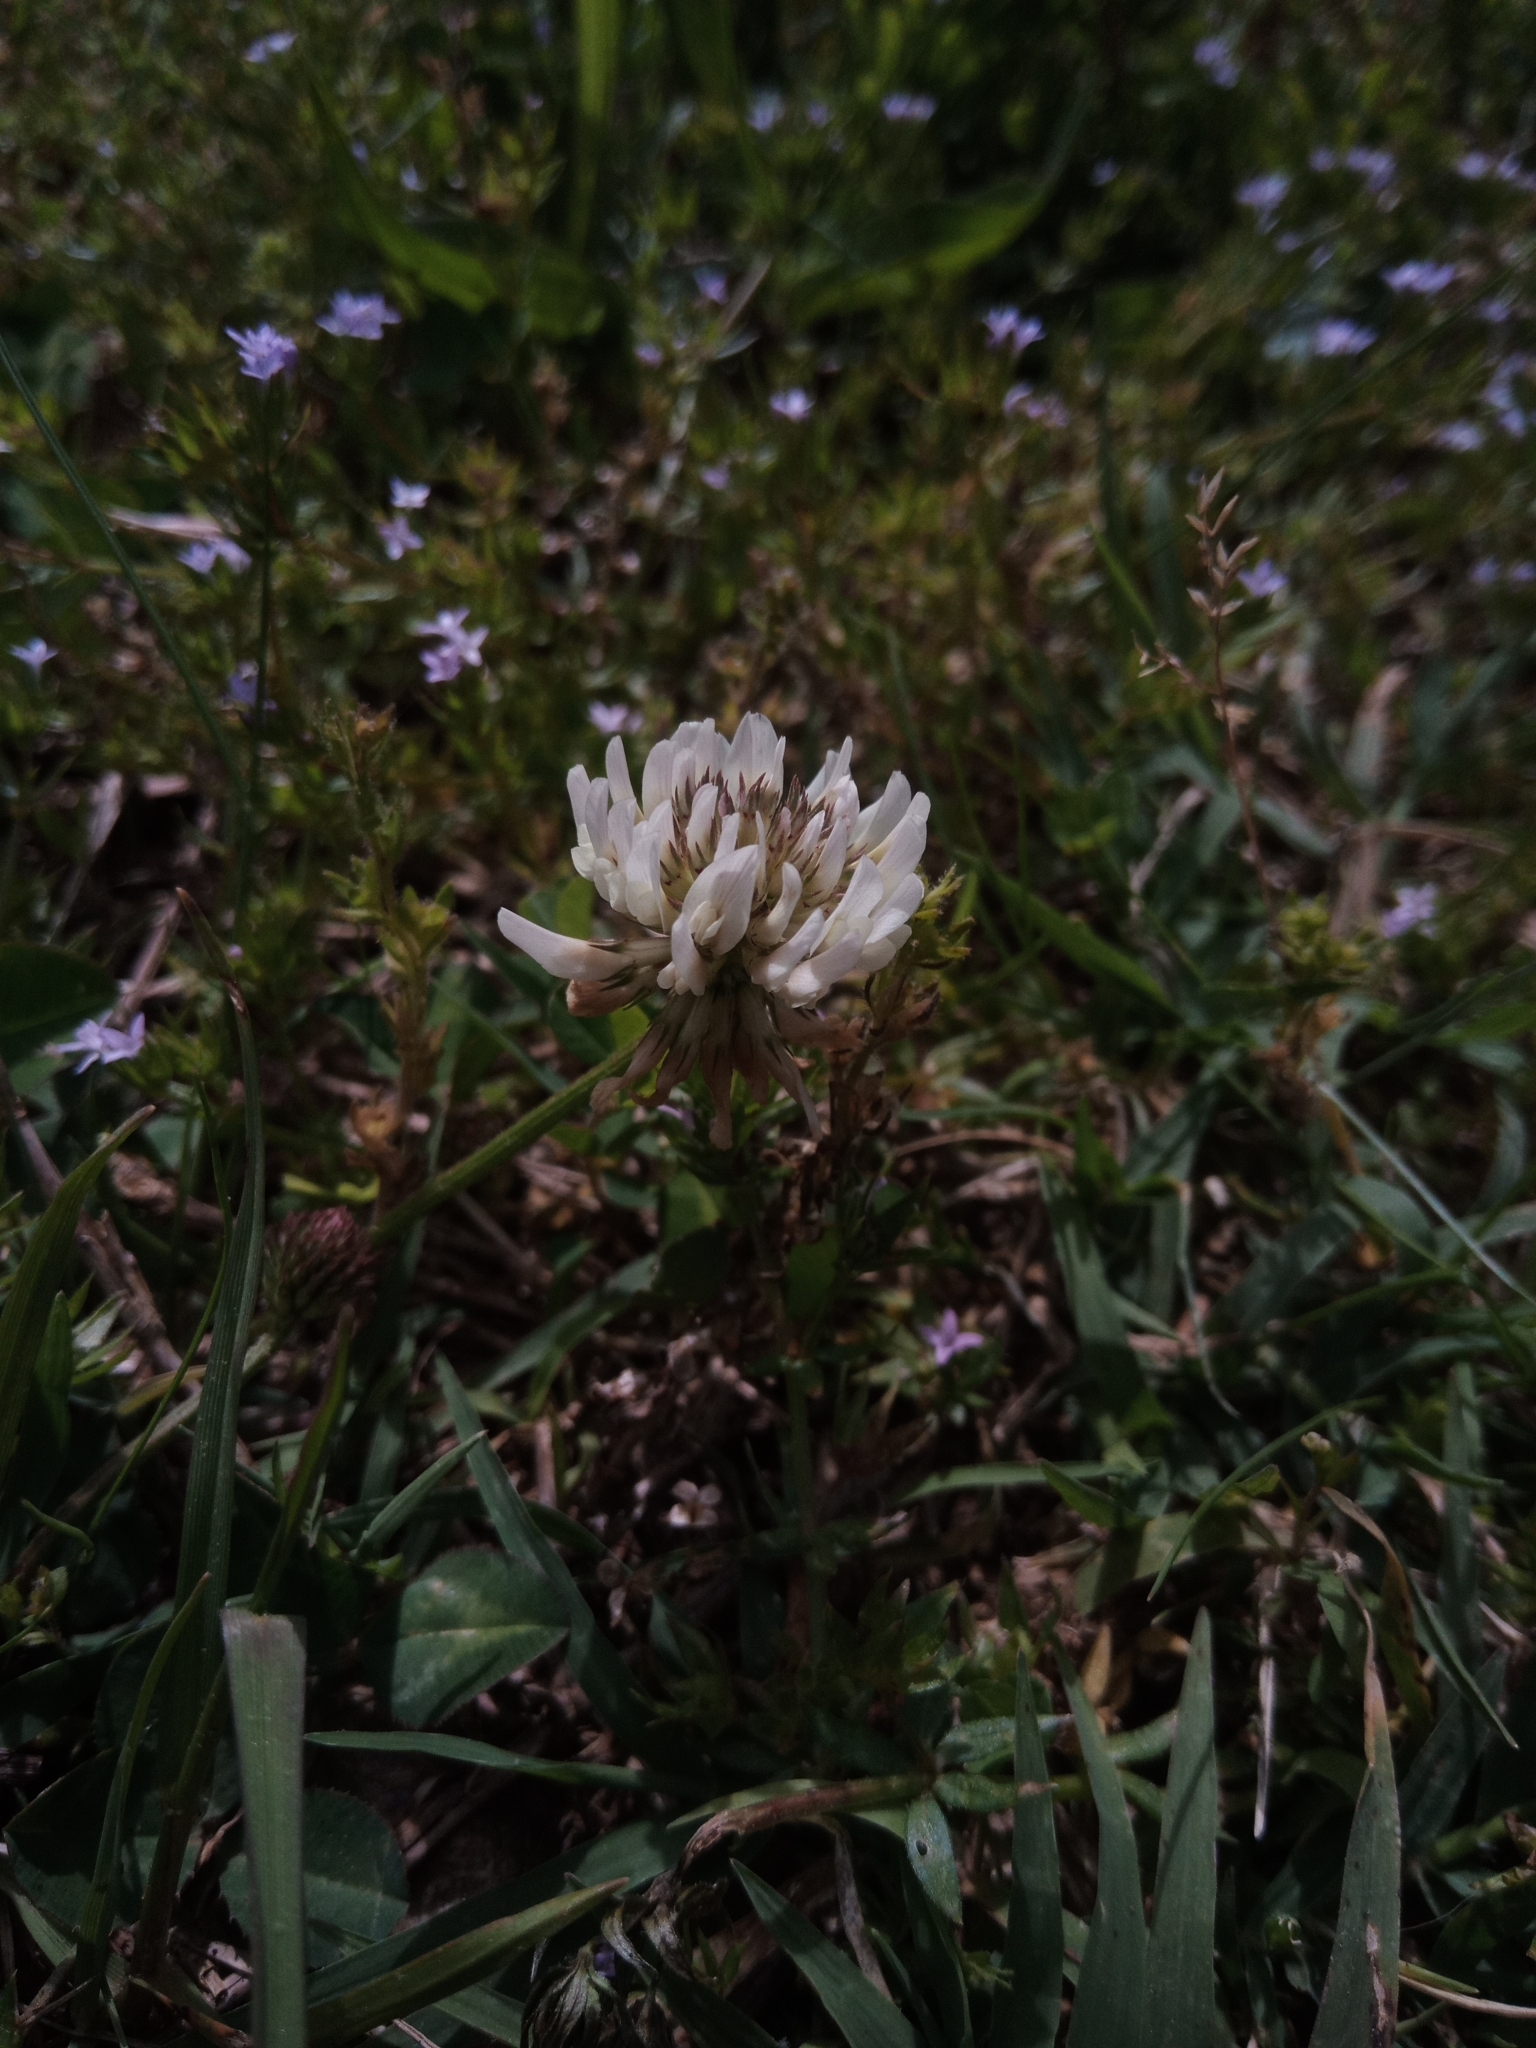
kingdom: Plantae
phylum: Tracheophyta
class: Magnoliopsida
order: Fabales
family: Fabaceae
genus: Trifolium
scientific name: Trifolium repens
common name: White clover
